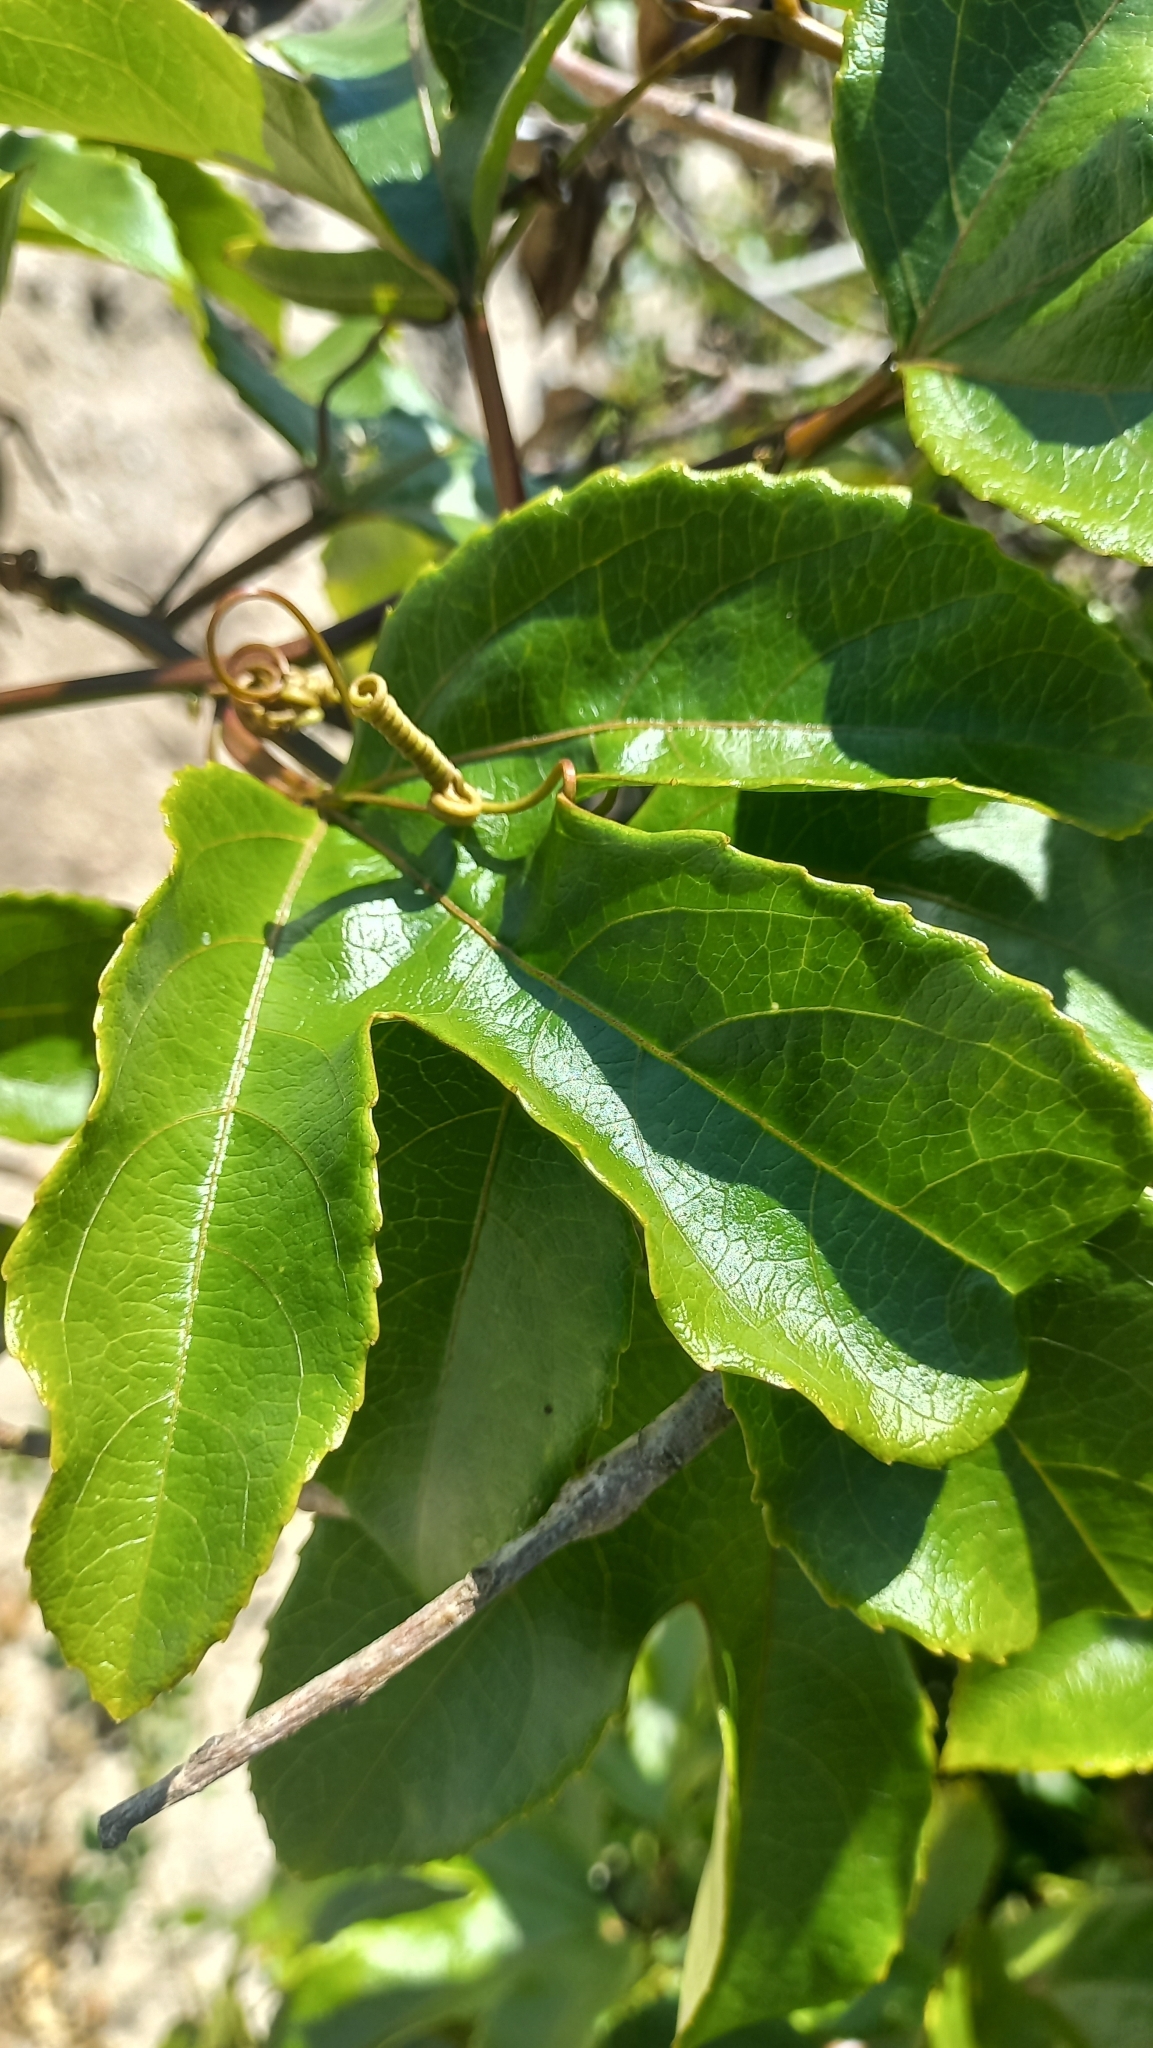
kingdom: Plantae
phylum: Tracheophyta
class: Magnoliopsida
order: Malpighiales
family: Passifloraceae
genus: Passiflora
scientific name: Passiflora edulis
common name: Purple granadilla
